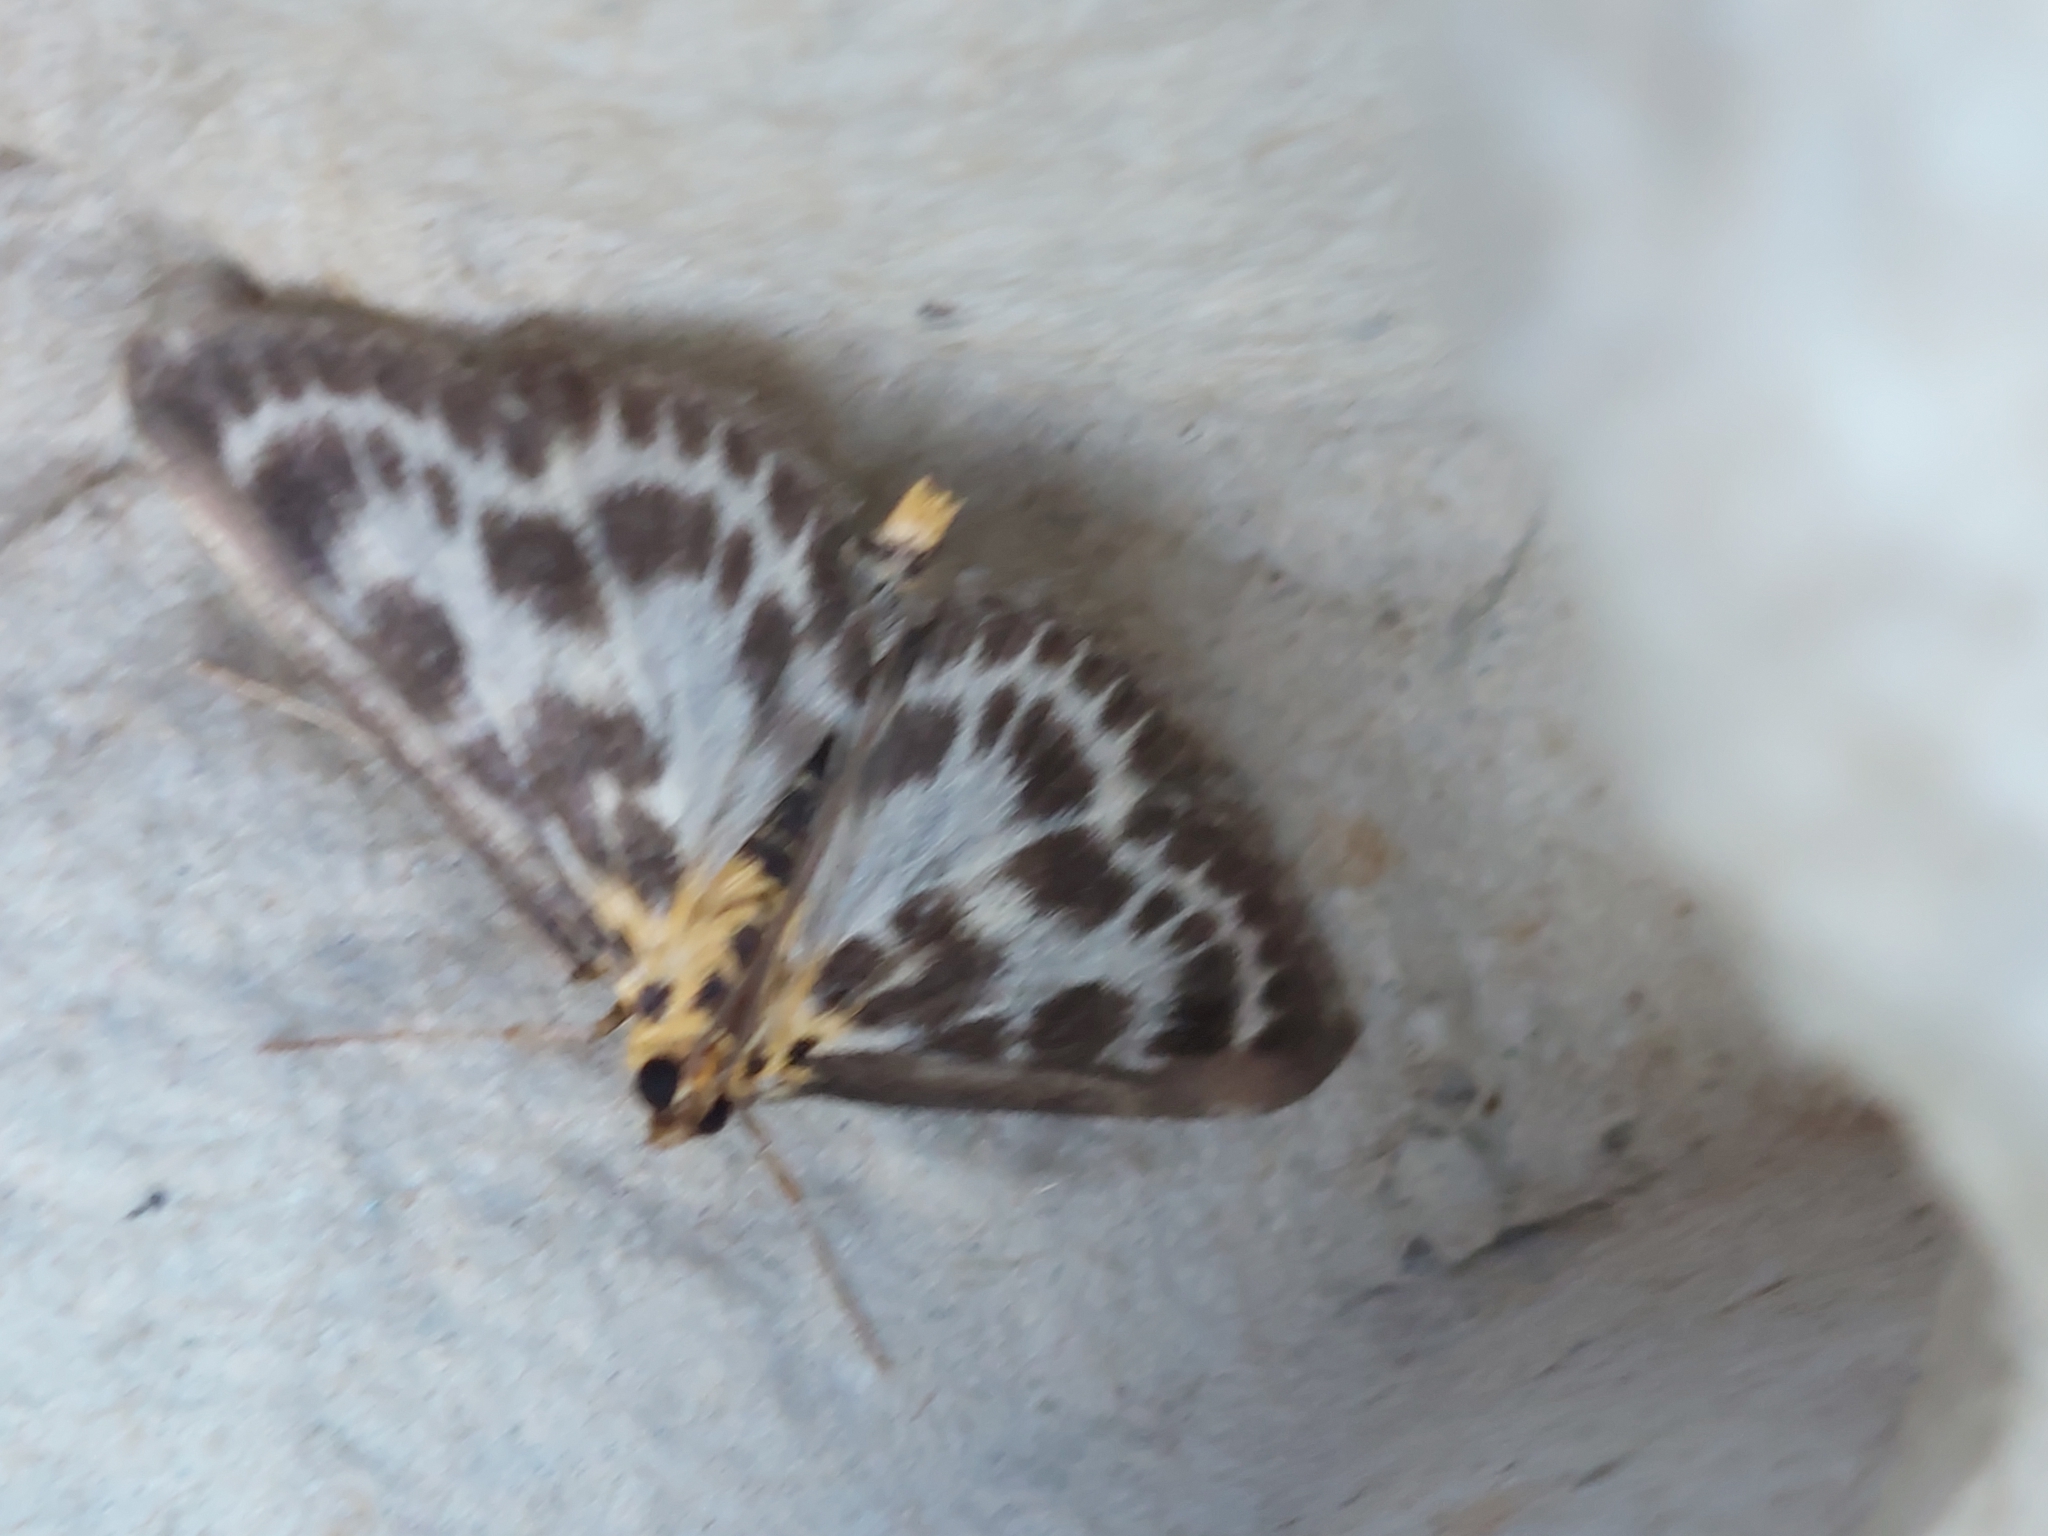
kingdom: Animalia
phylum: Arthropoda
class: Insecta
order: Lepidoptera
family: Crambidae
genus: Anania
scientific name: Anania hortulata
